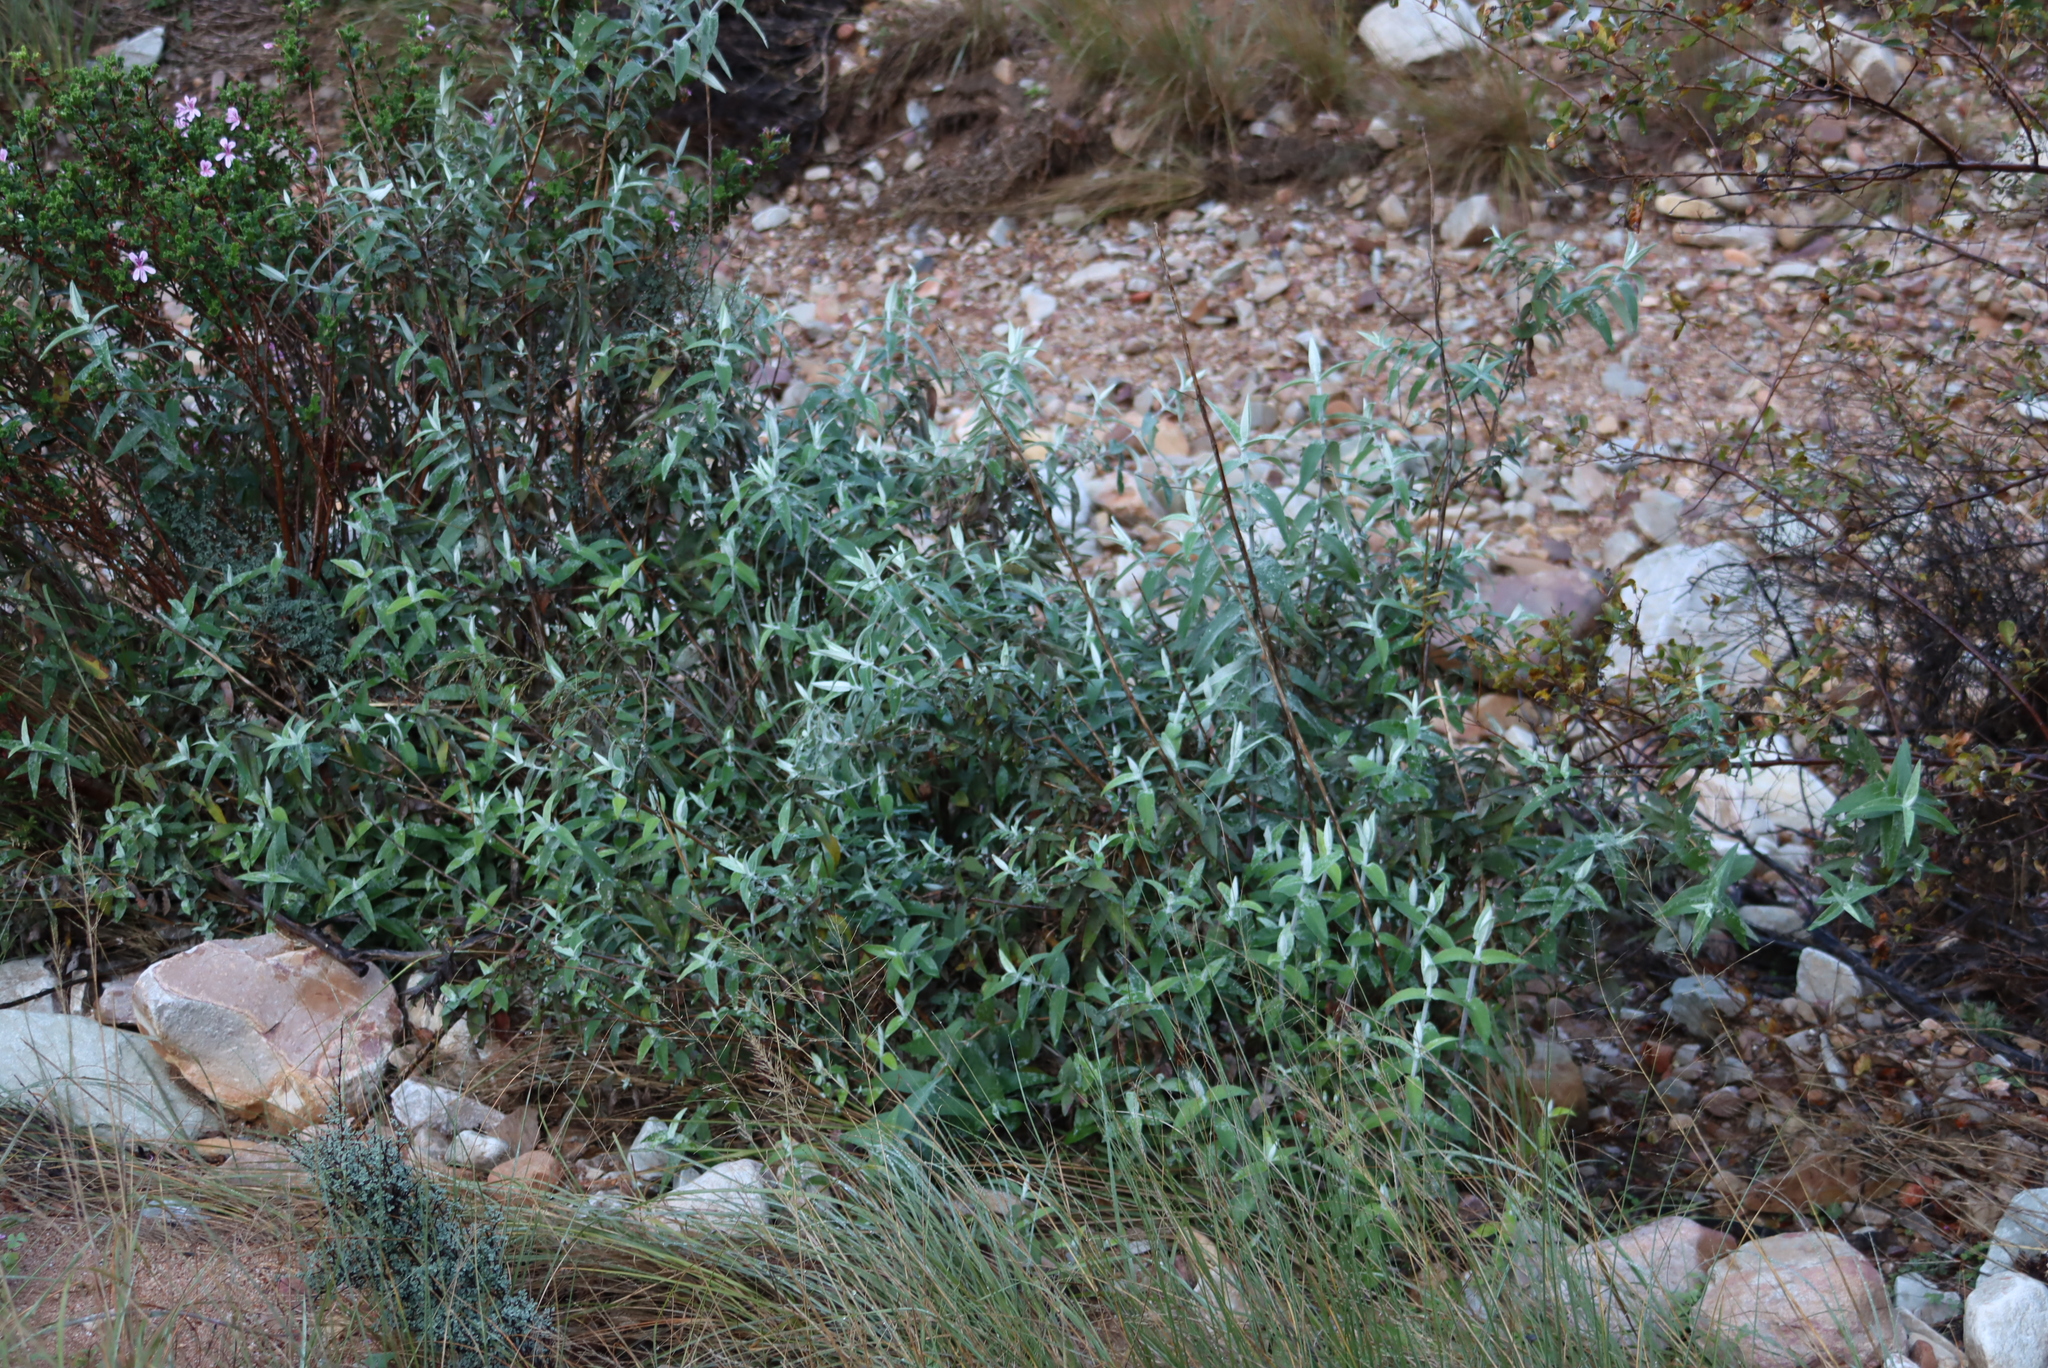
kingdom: Plantae
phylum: Tracheophyta
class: Magnoliopsida
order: Lamiales
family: Scrophulariaceae
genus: Buddleja
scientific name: Buddleja salviifolia
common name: Sagewood
